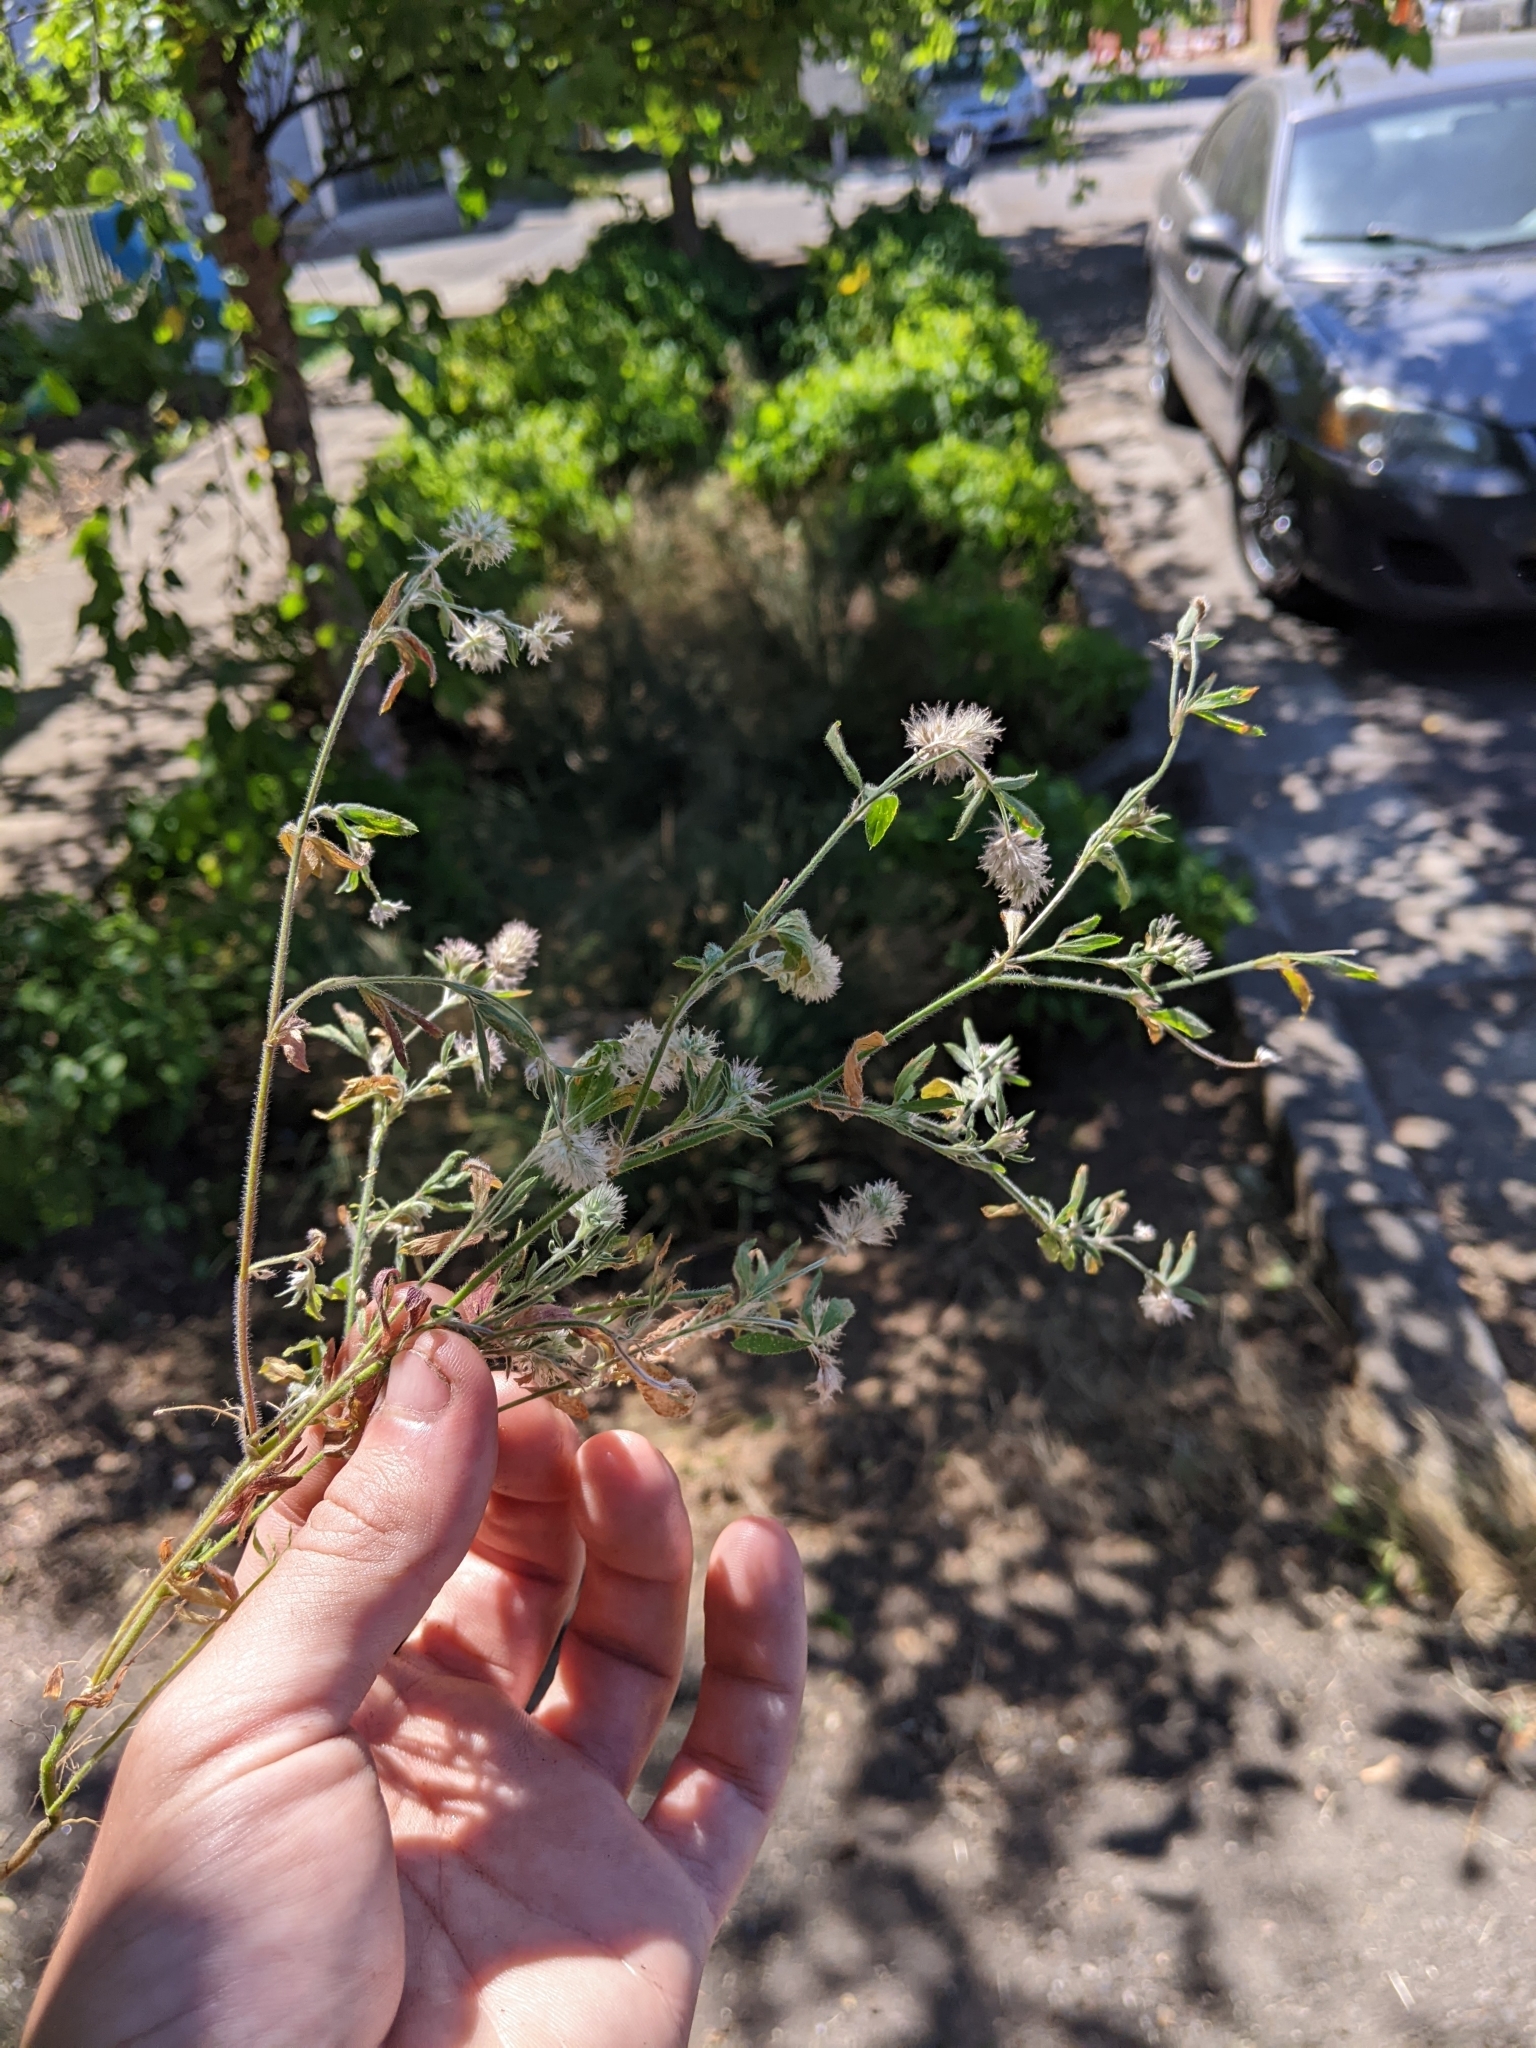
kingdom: Plantae
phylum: Tracheophyta
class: Magnoliopsida
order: Fabales
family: Fabaceae
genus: Trifolium
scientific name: Trifolium arvense
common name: Hare's-foot clover
